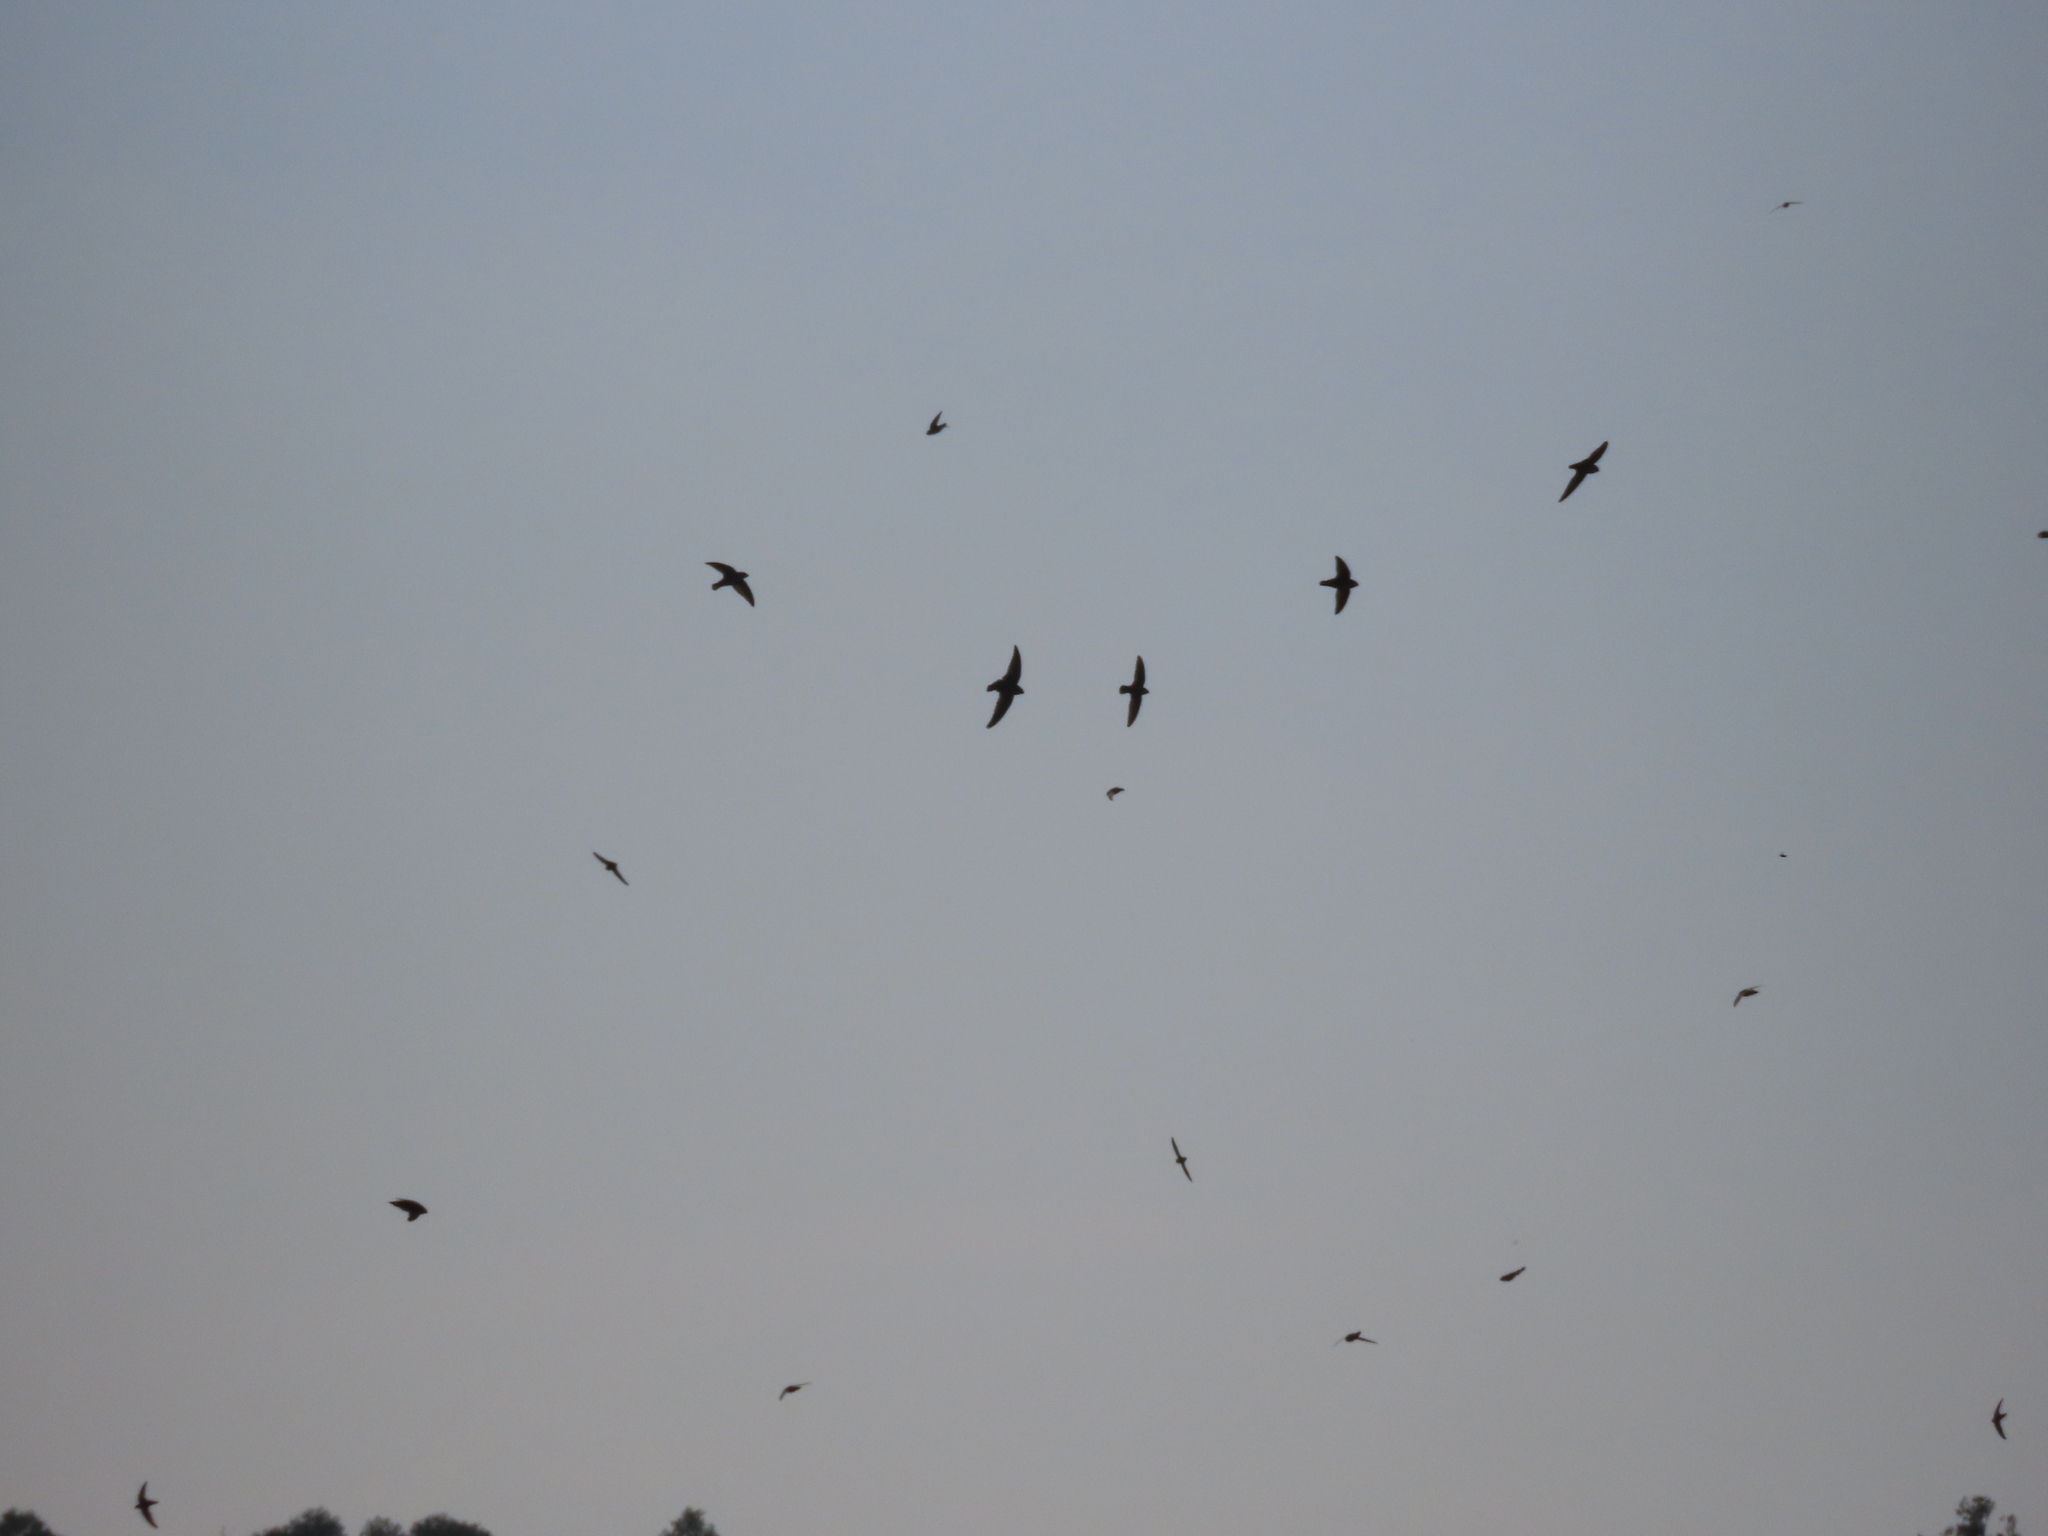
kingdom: Animalia
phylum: Chordata
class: Aves
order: Apodiformes
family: Apodidae
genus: Chaetura
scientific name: Chaetura vauxi
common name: Vaux's swift
